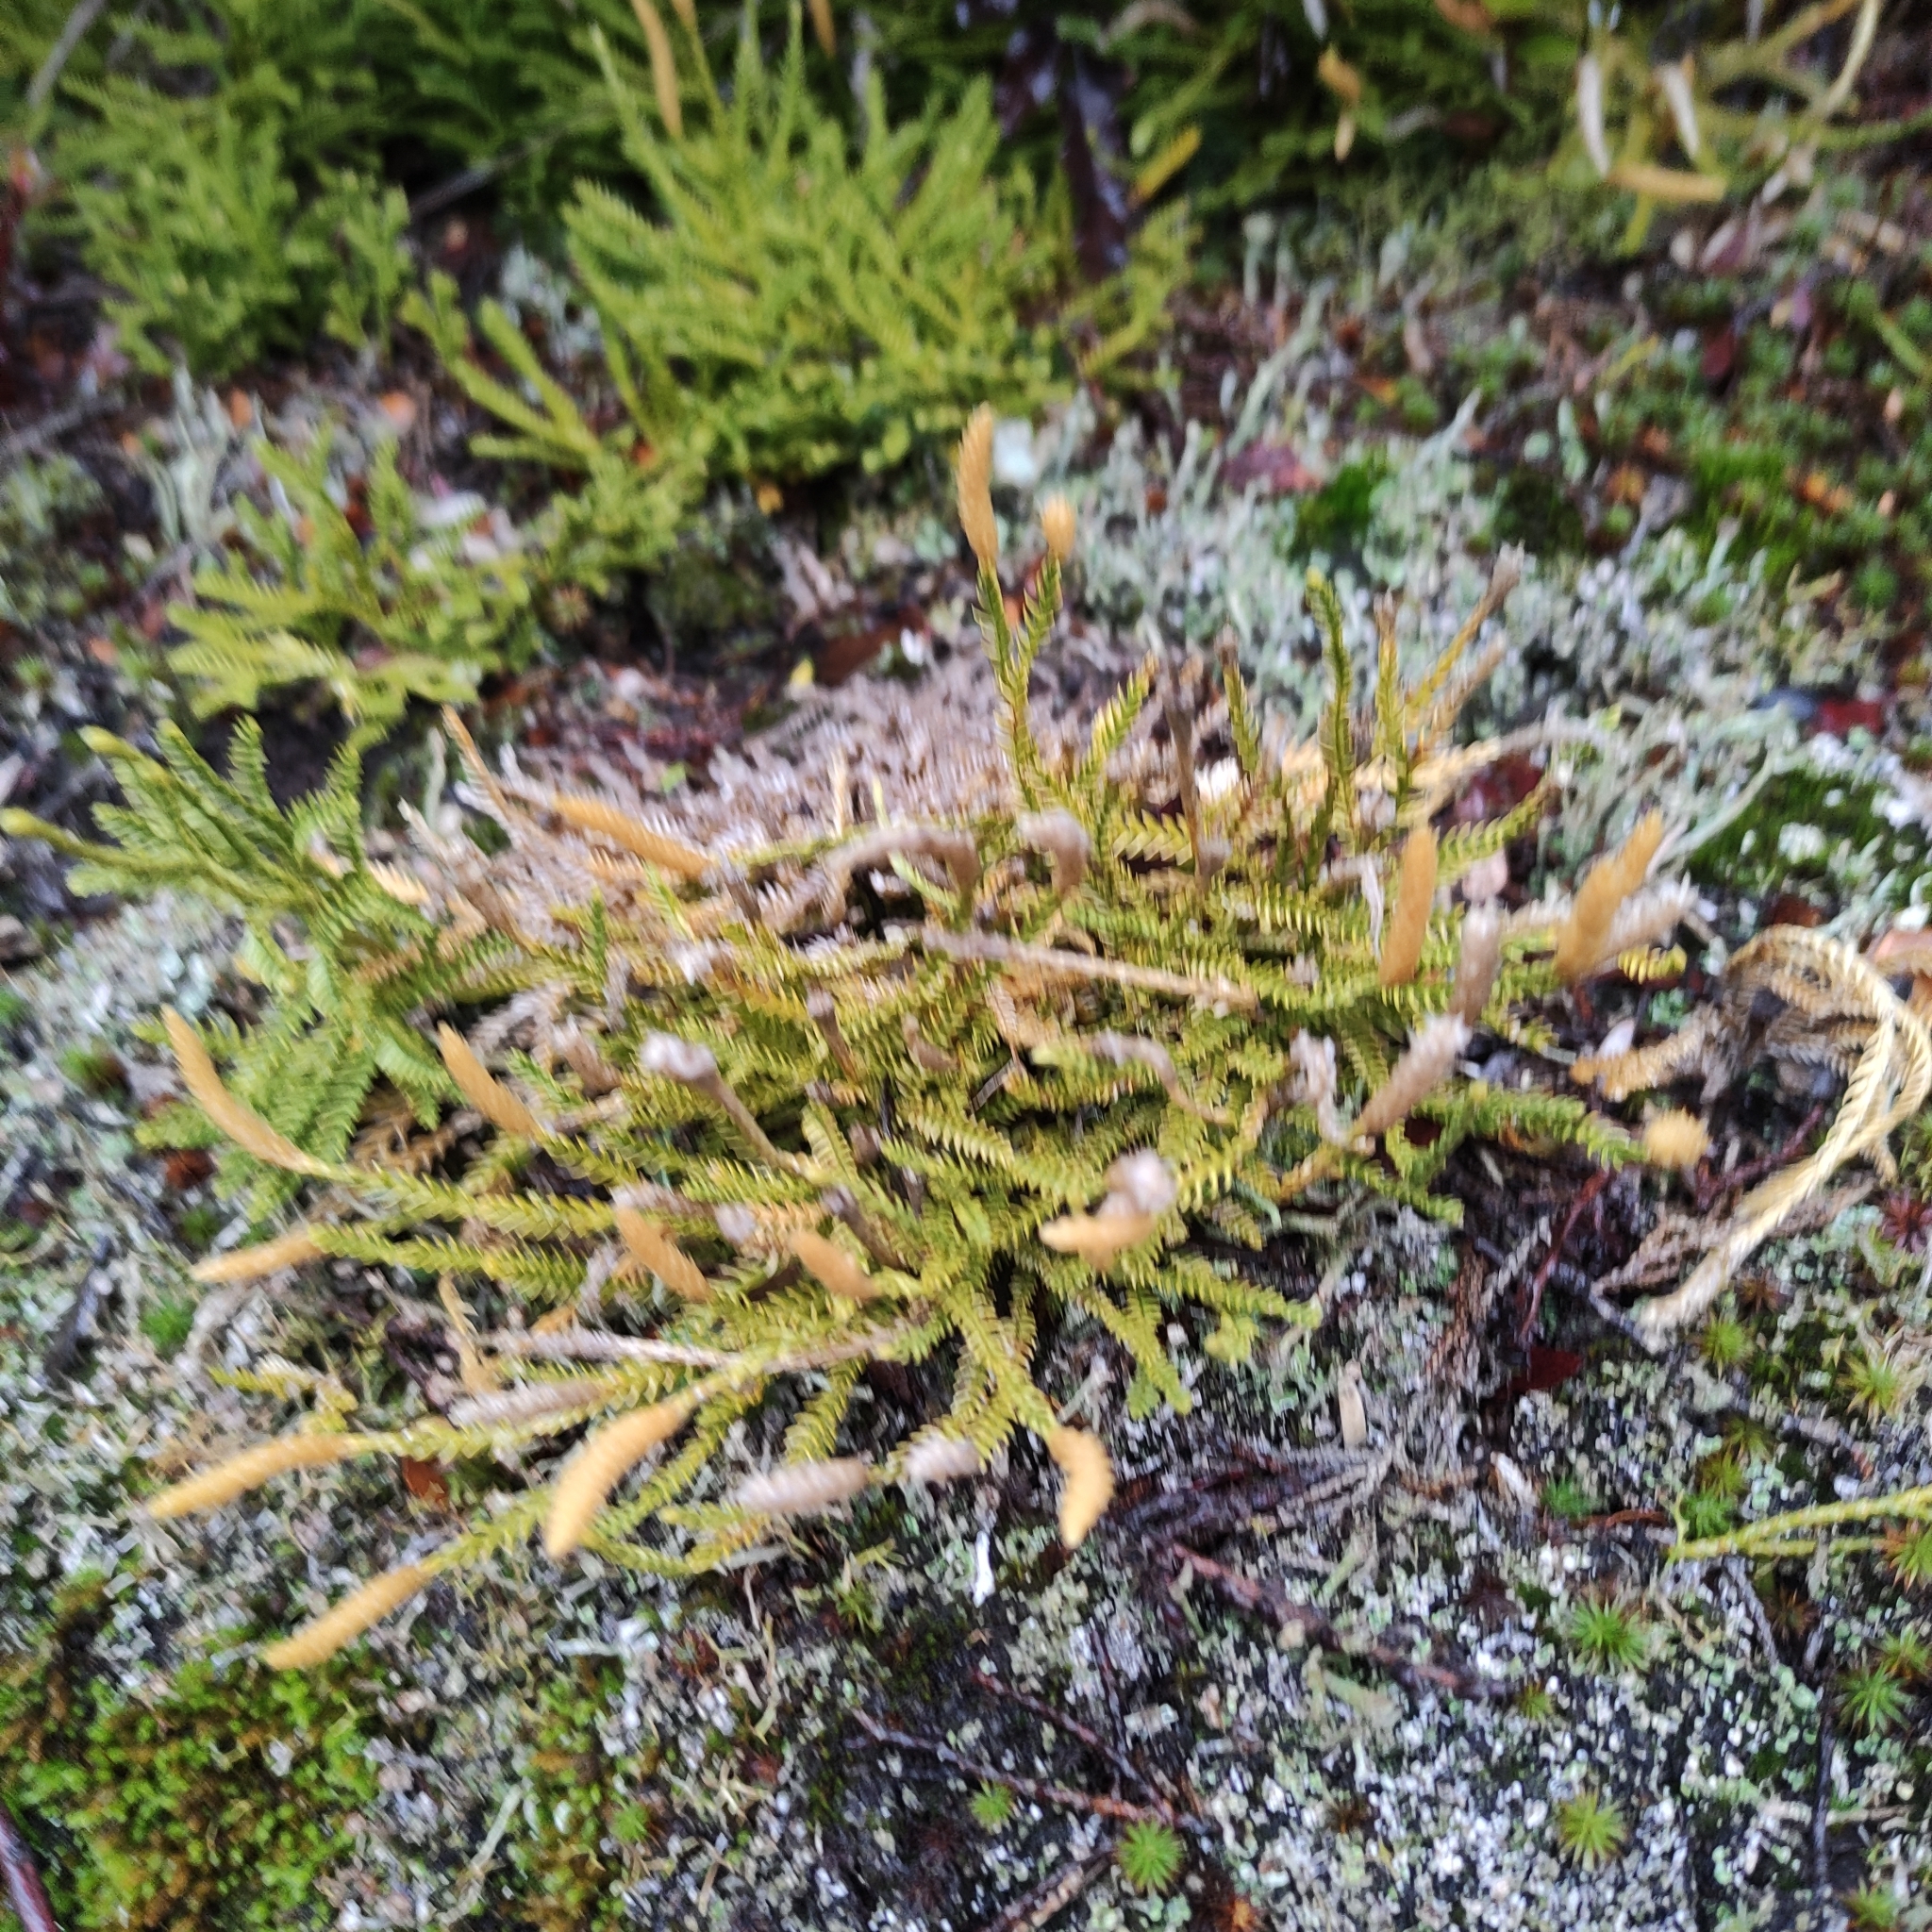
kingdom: Plantae
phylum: Tracheophyta
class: Lycopodiopsida
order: Lycopodiales
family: Lycopodiaceae
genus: Diphasium
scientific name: Diphasium scariosum
